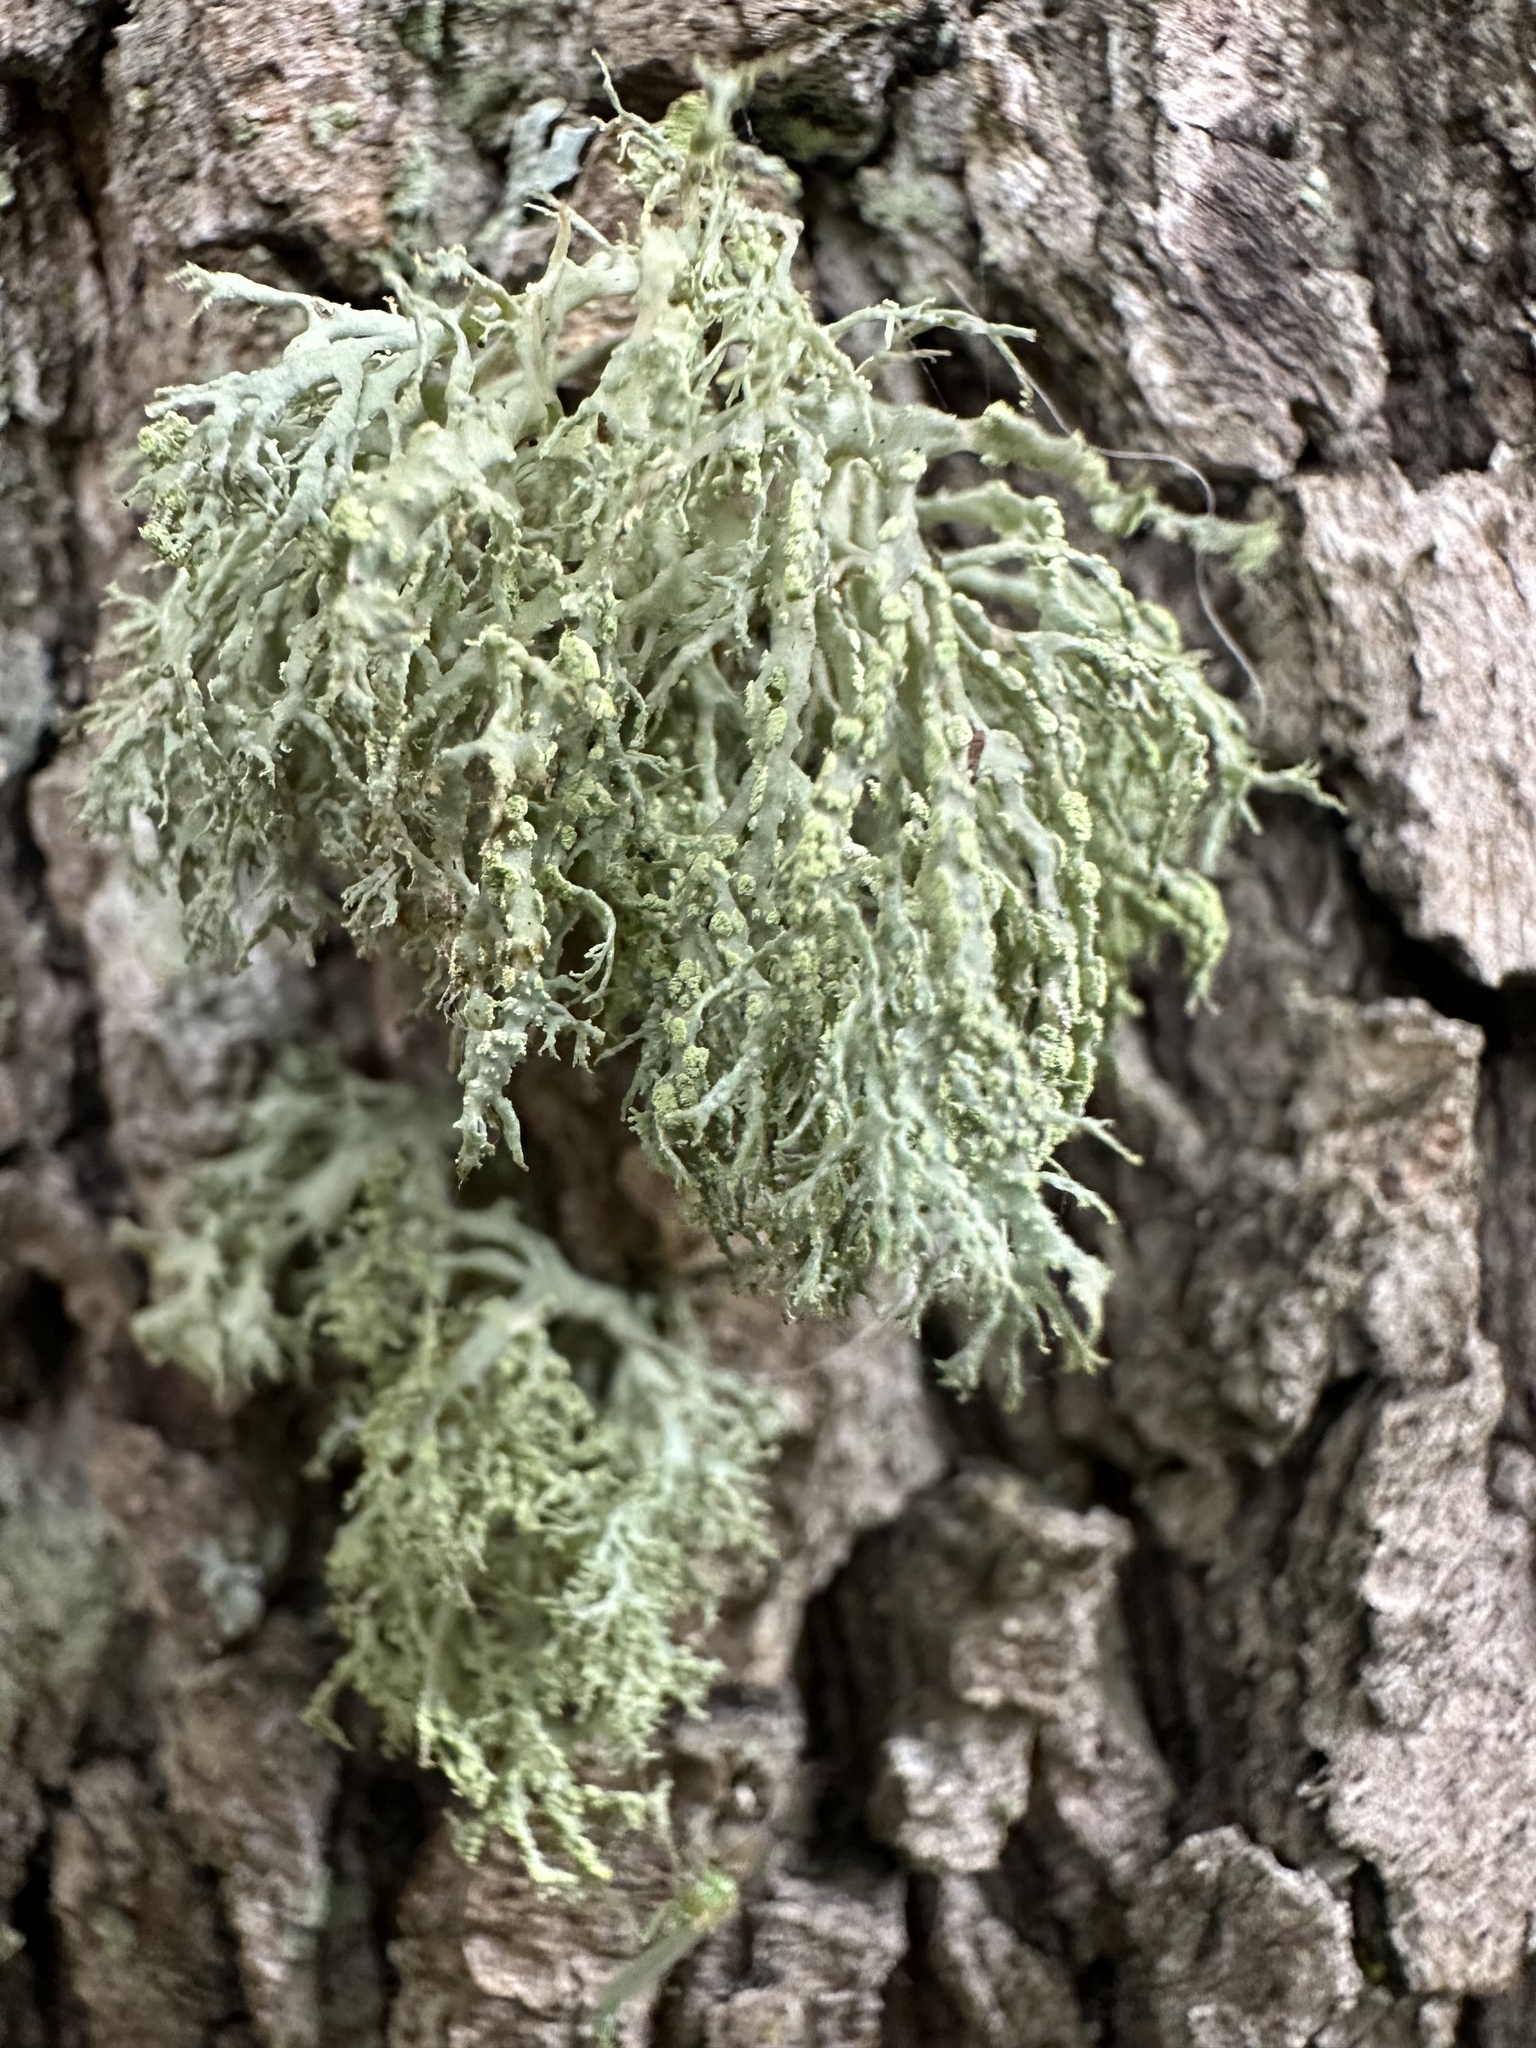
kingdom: Fungi
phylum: Ascomycota
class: Lecanoromycetes
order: Lecanorales
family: Ramalinaceae
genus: Ramalina
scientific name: Ramalina farinacea
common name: Farinose cartilage lichen
